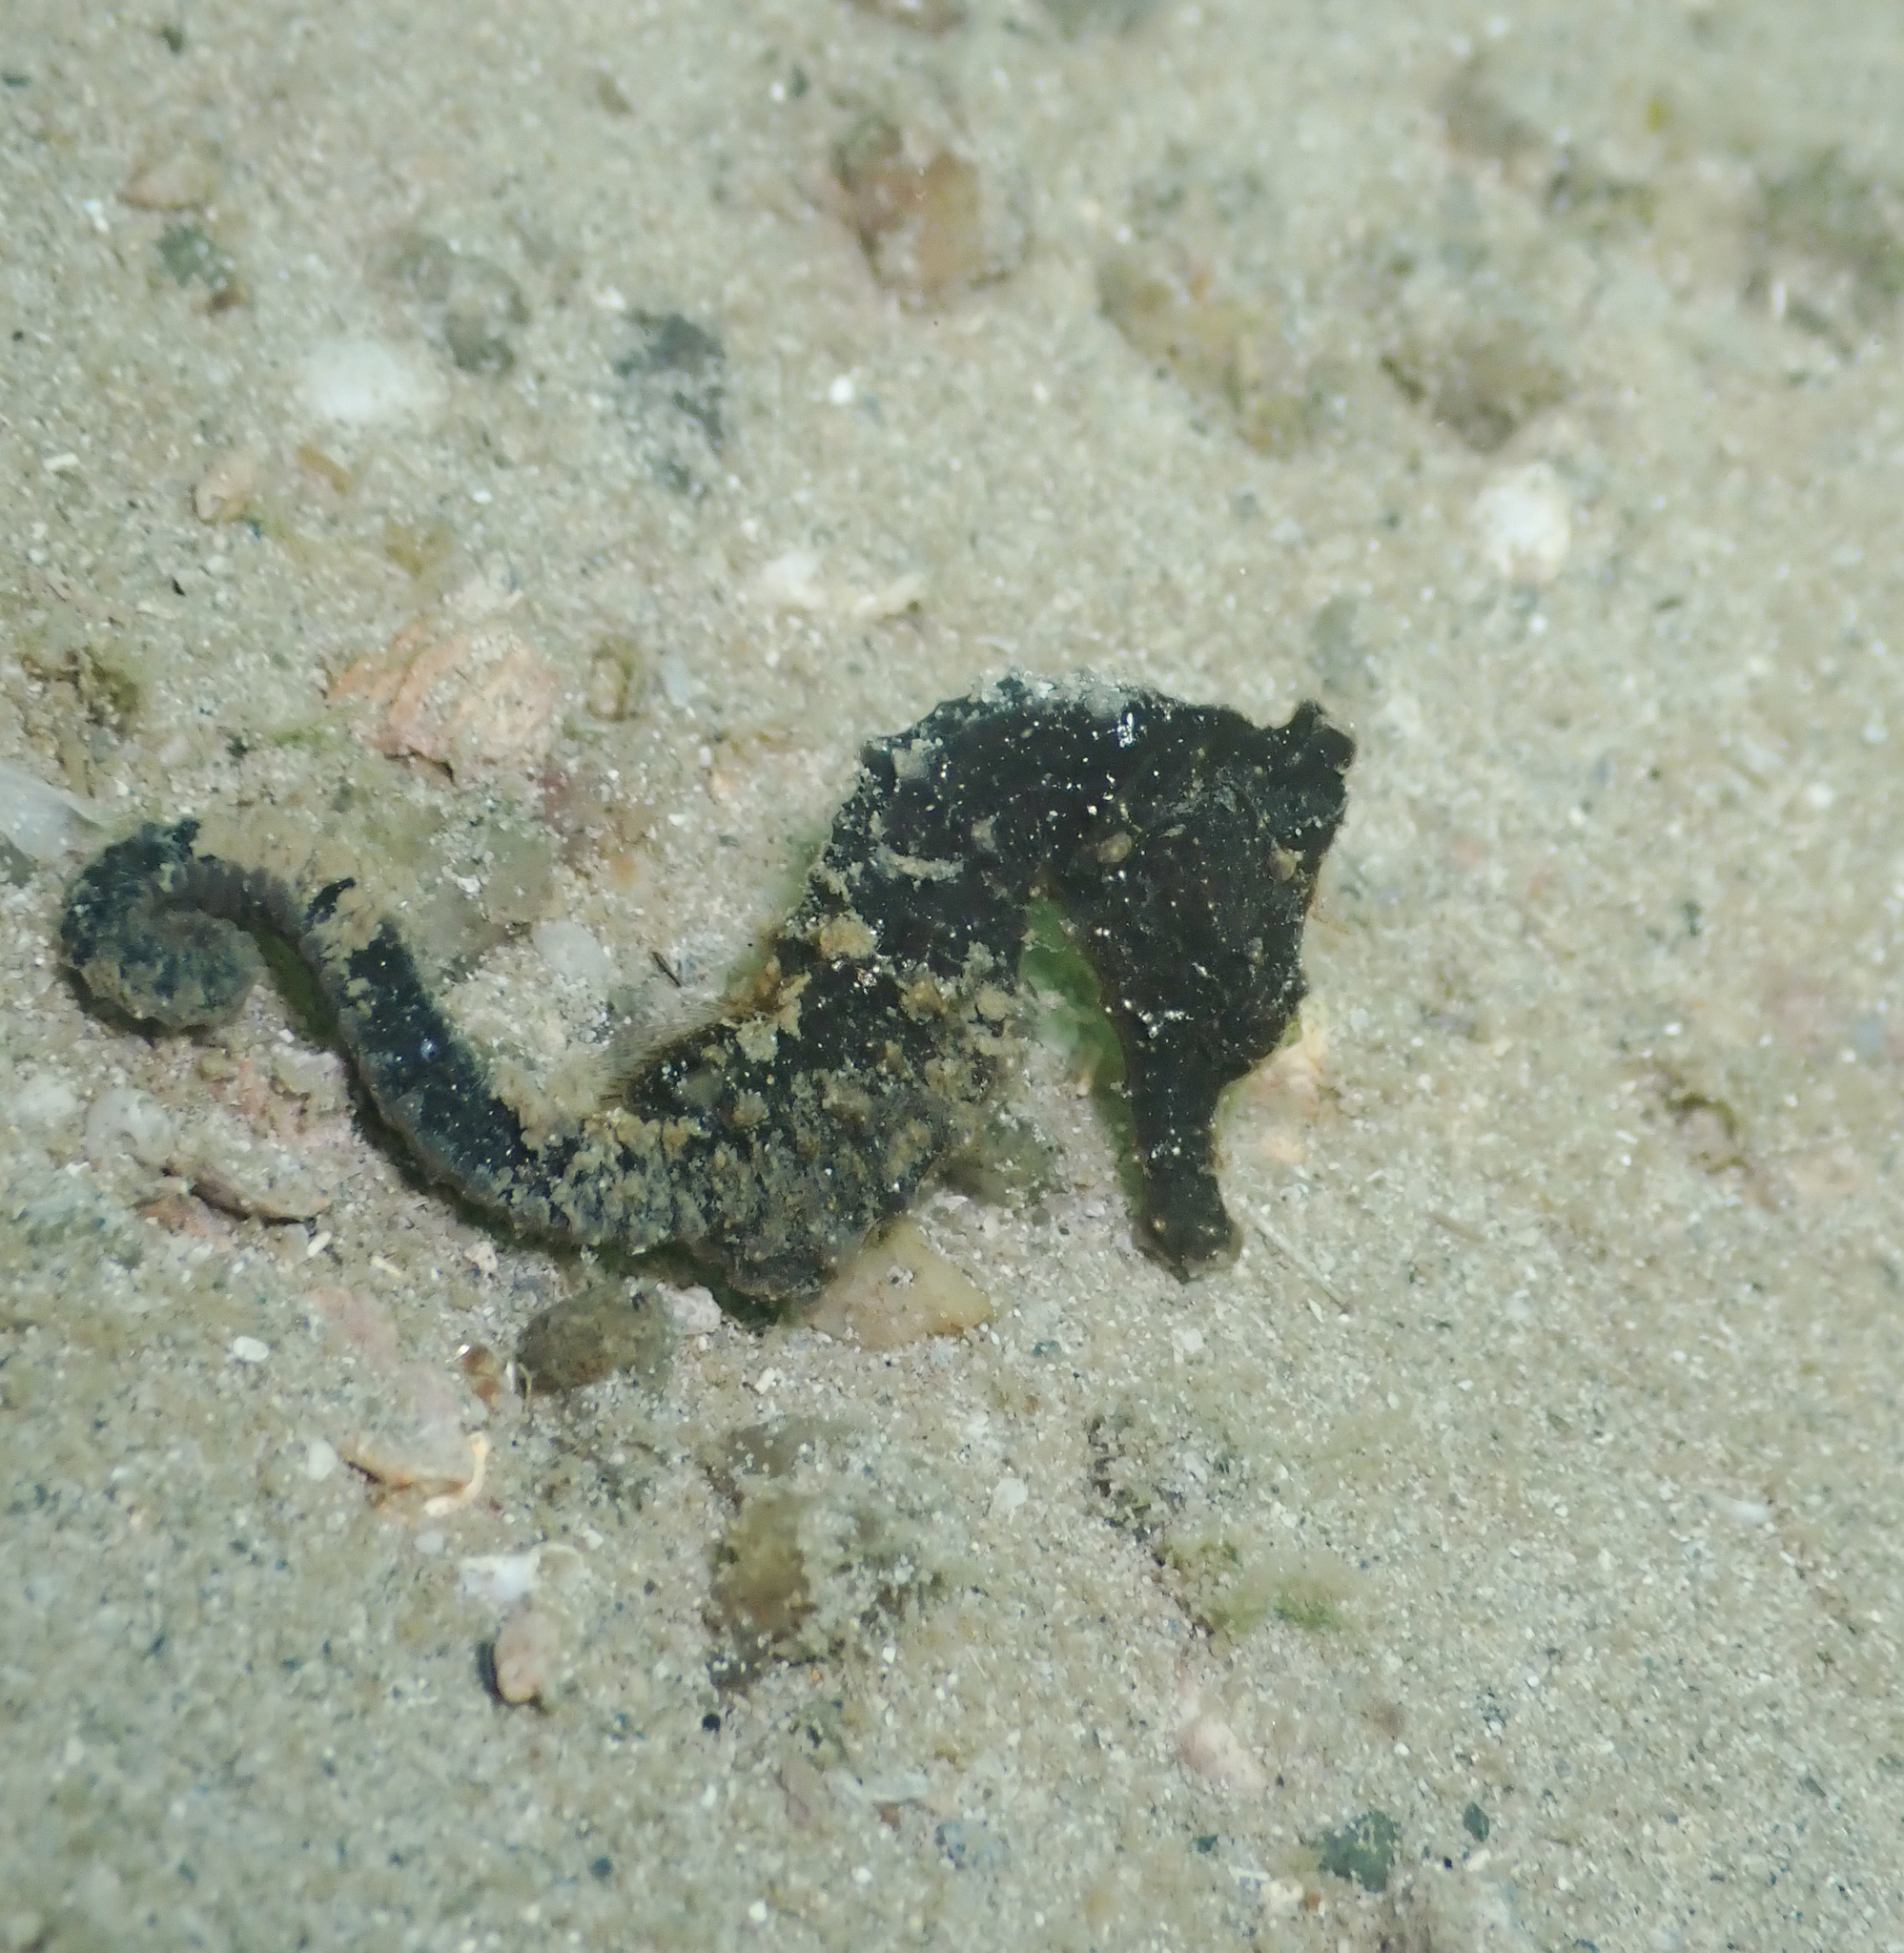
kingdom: Animalia
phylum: Chordata
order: Syngnathiformes
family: Syngnathidae
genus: Hippocampus
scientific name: Hippocampus kuda
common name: Spotted seahorse
